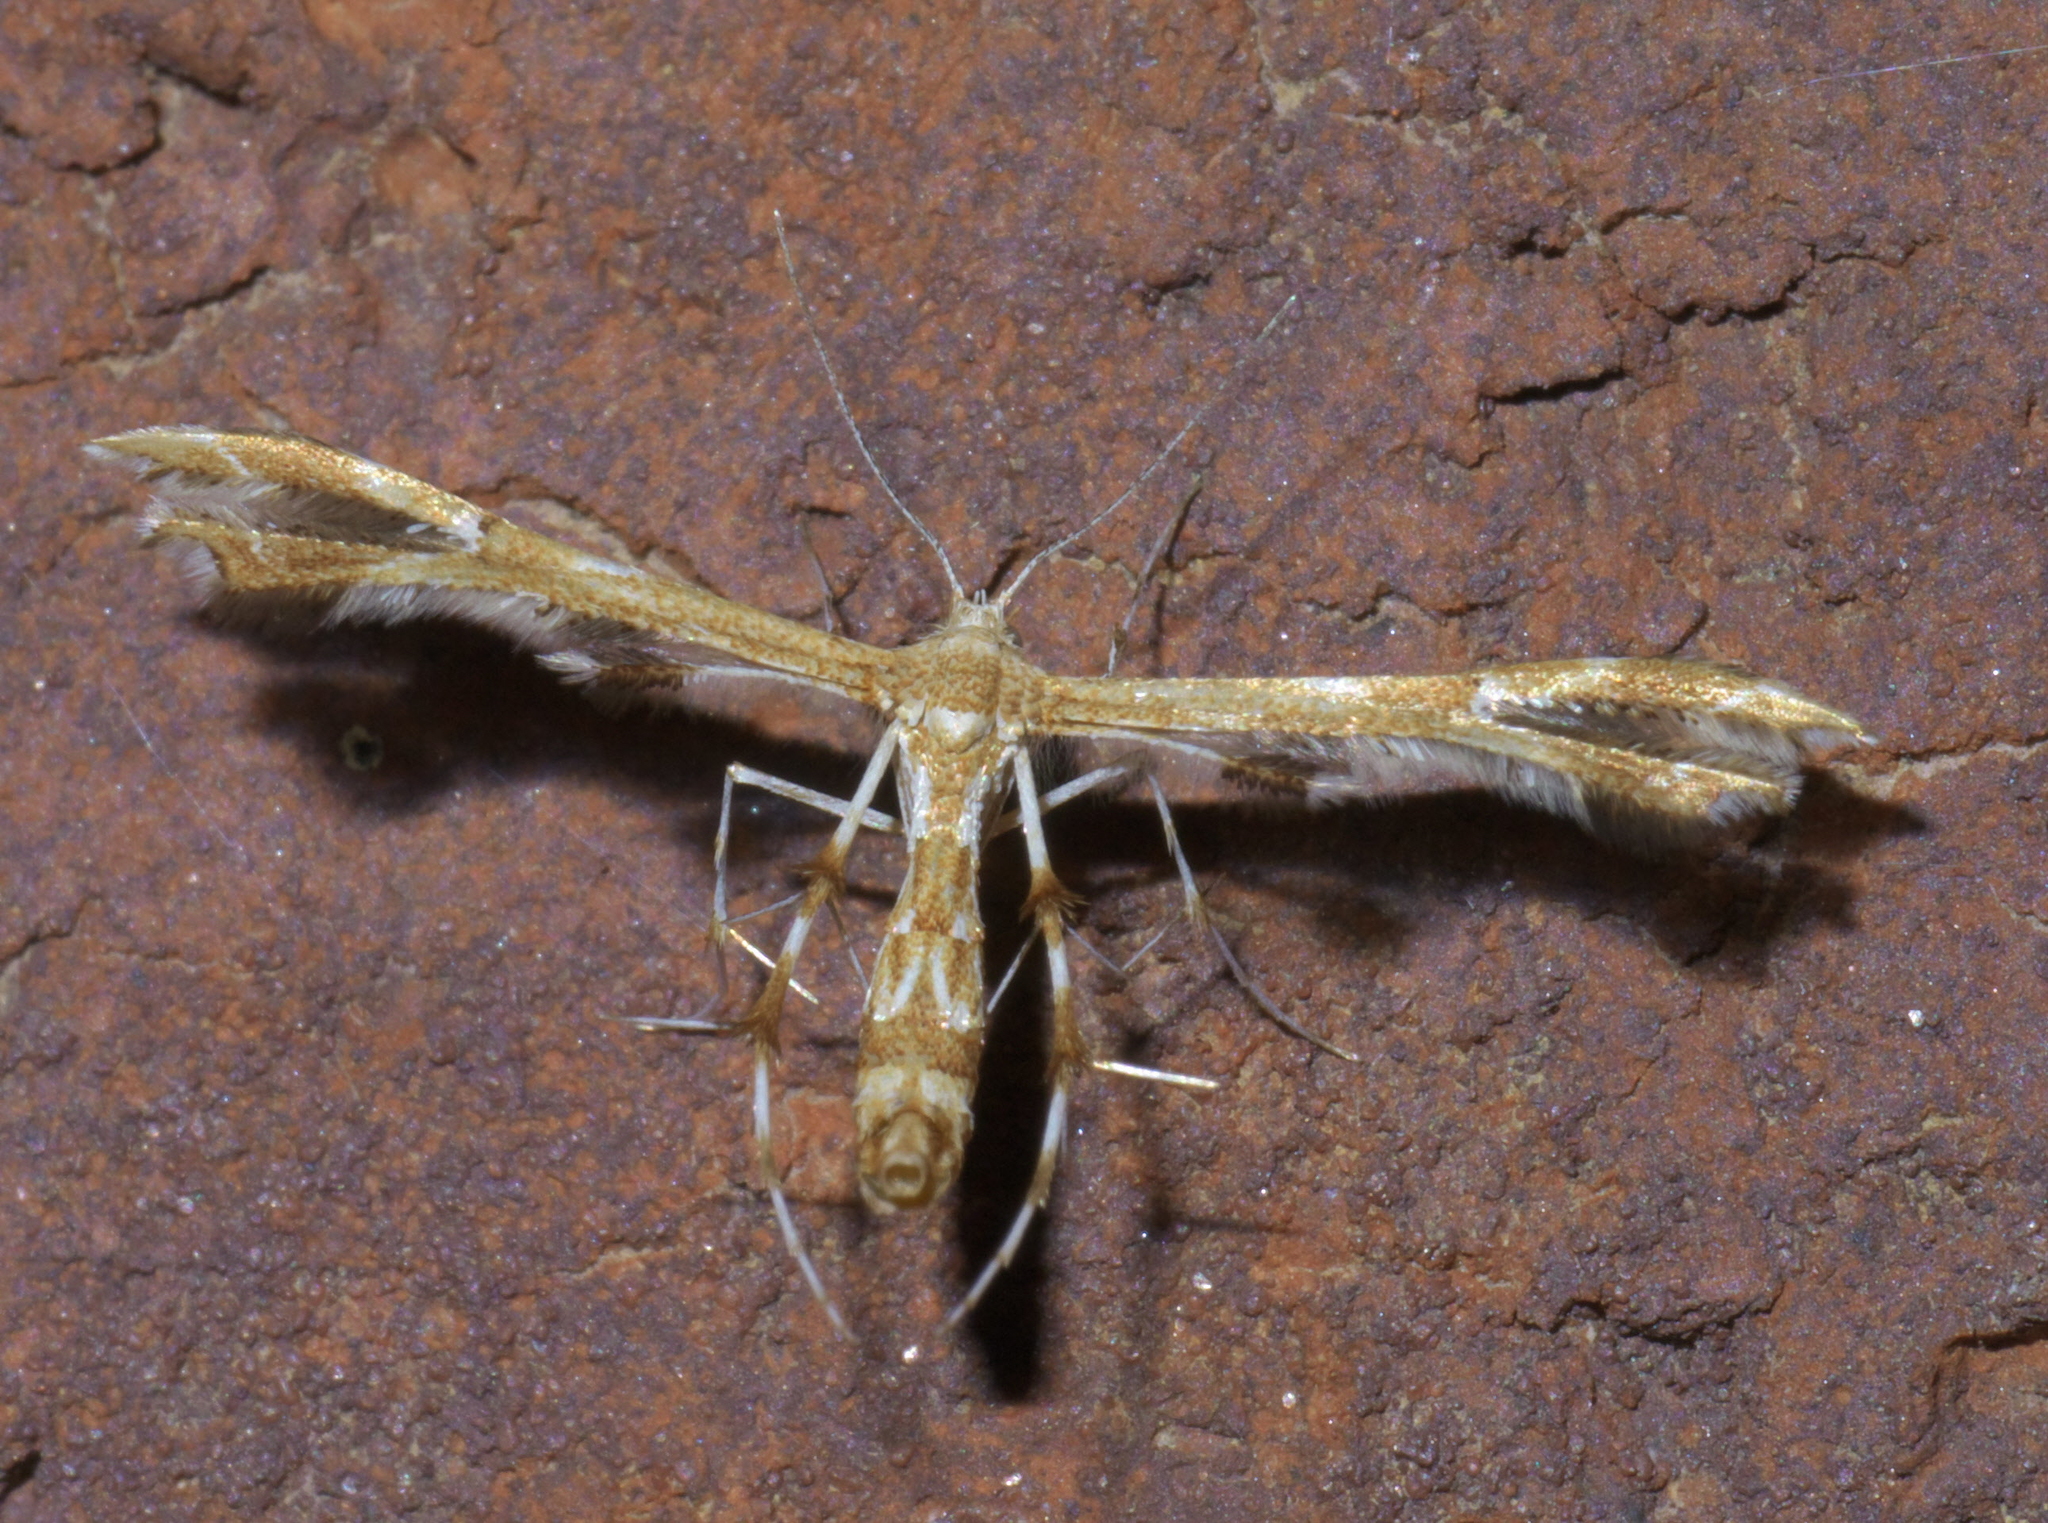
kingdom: Animalia
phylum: Arthropoda
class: Insecta
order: Lepidoptera
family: Pterophoridae
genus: Geina
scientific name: Geina periscelidactylus
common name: Grape plume moth
